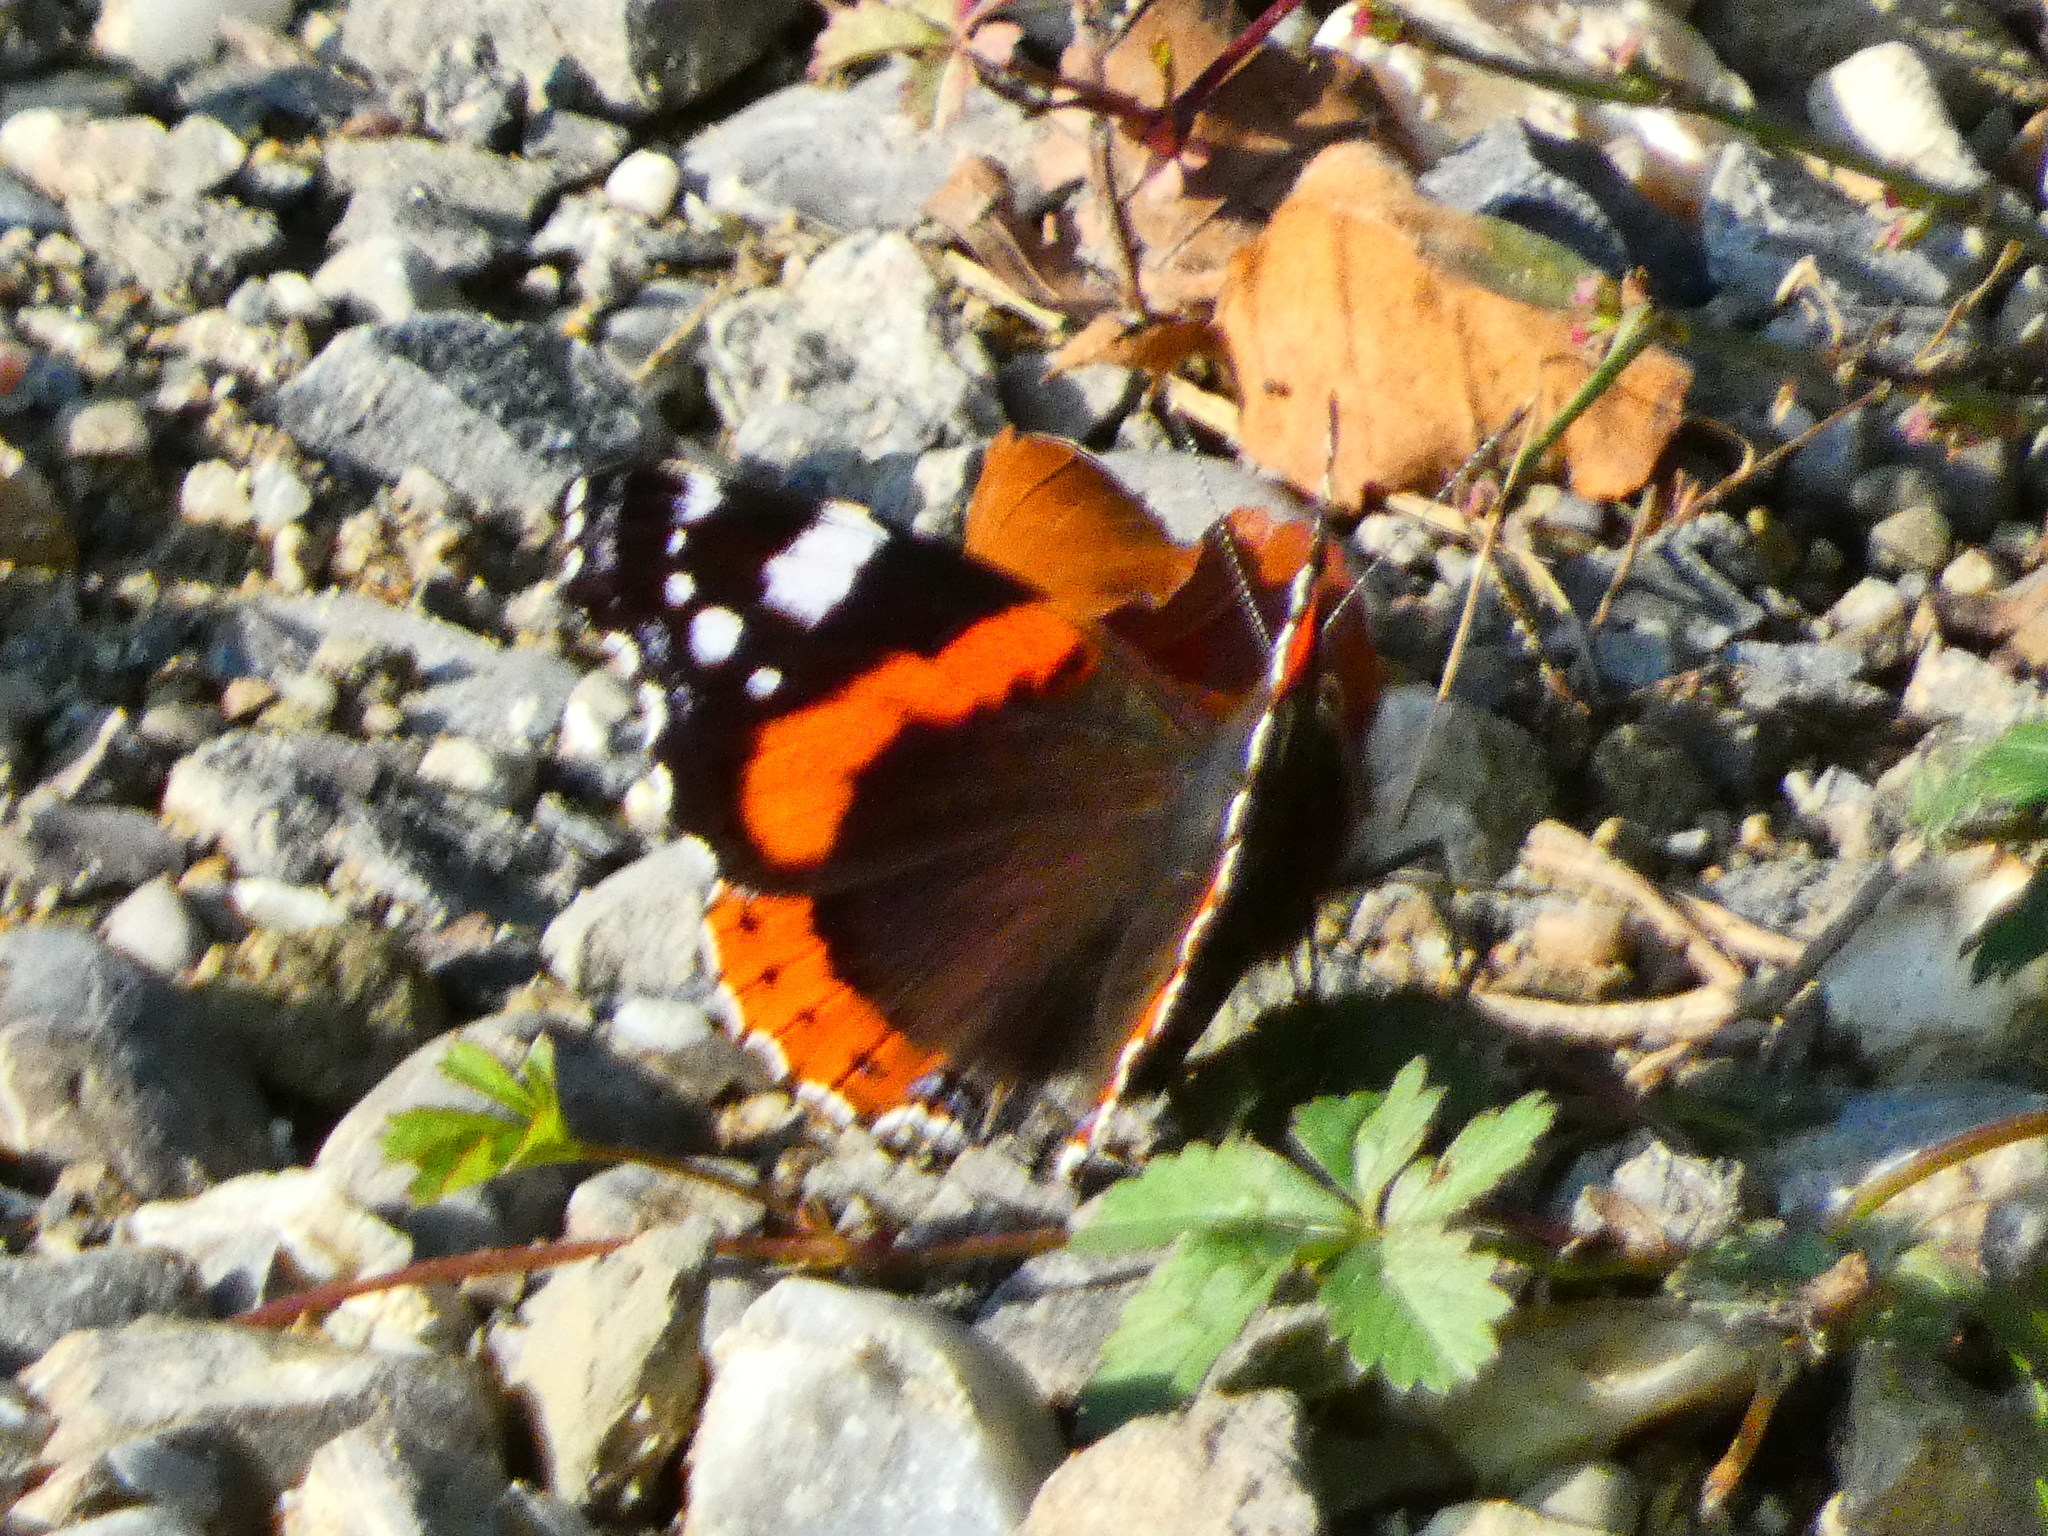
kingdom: Animalia
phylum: Arthropoda
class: Insecta
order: Lepidoptera
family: Nymphalidae
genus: Vanessa
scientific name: Vanessa atalanta
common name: Red admiral
